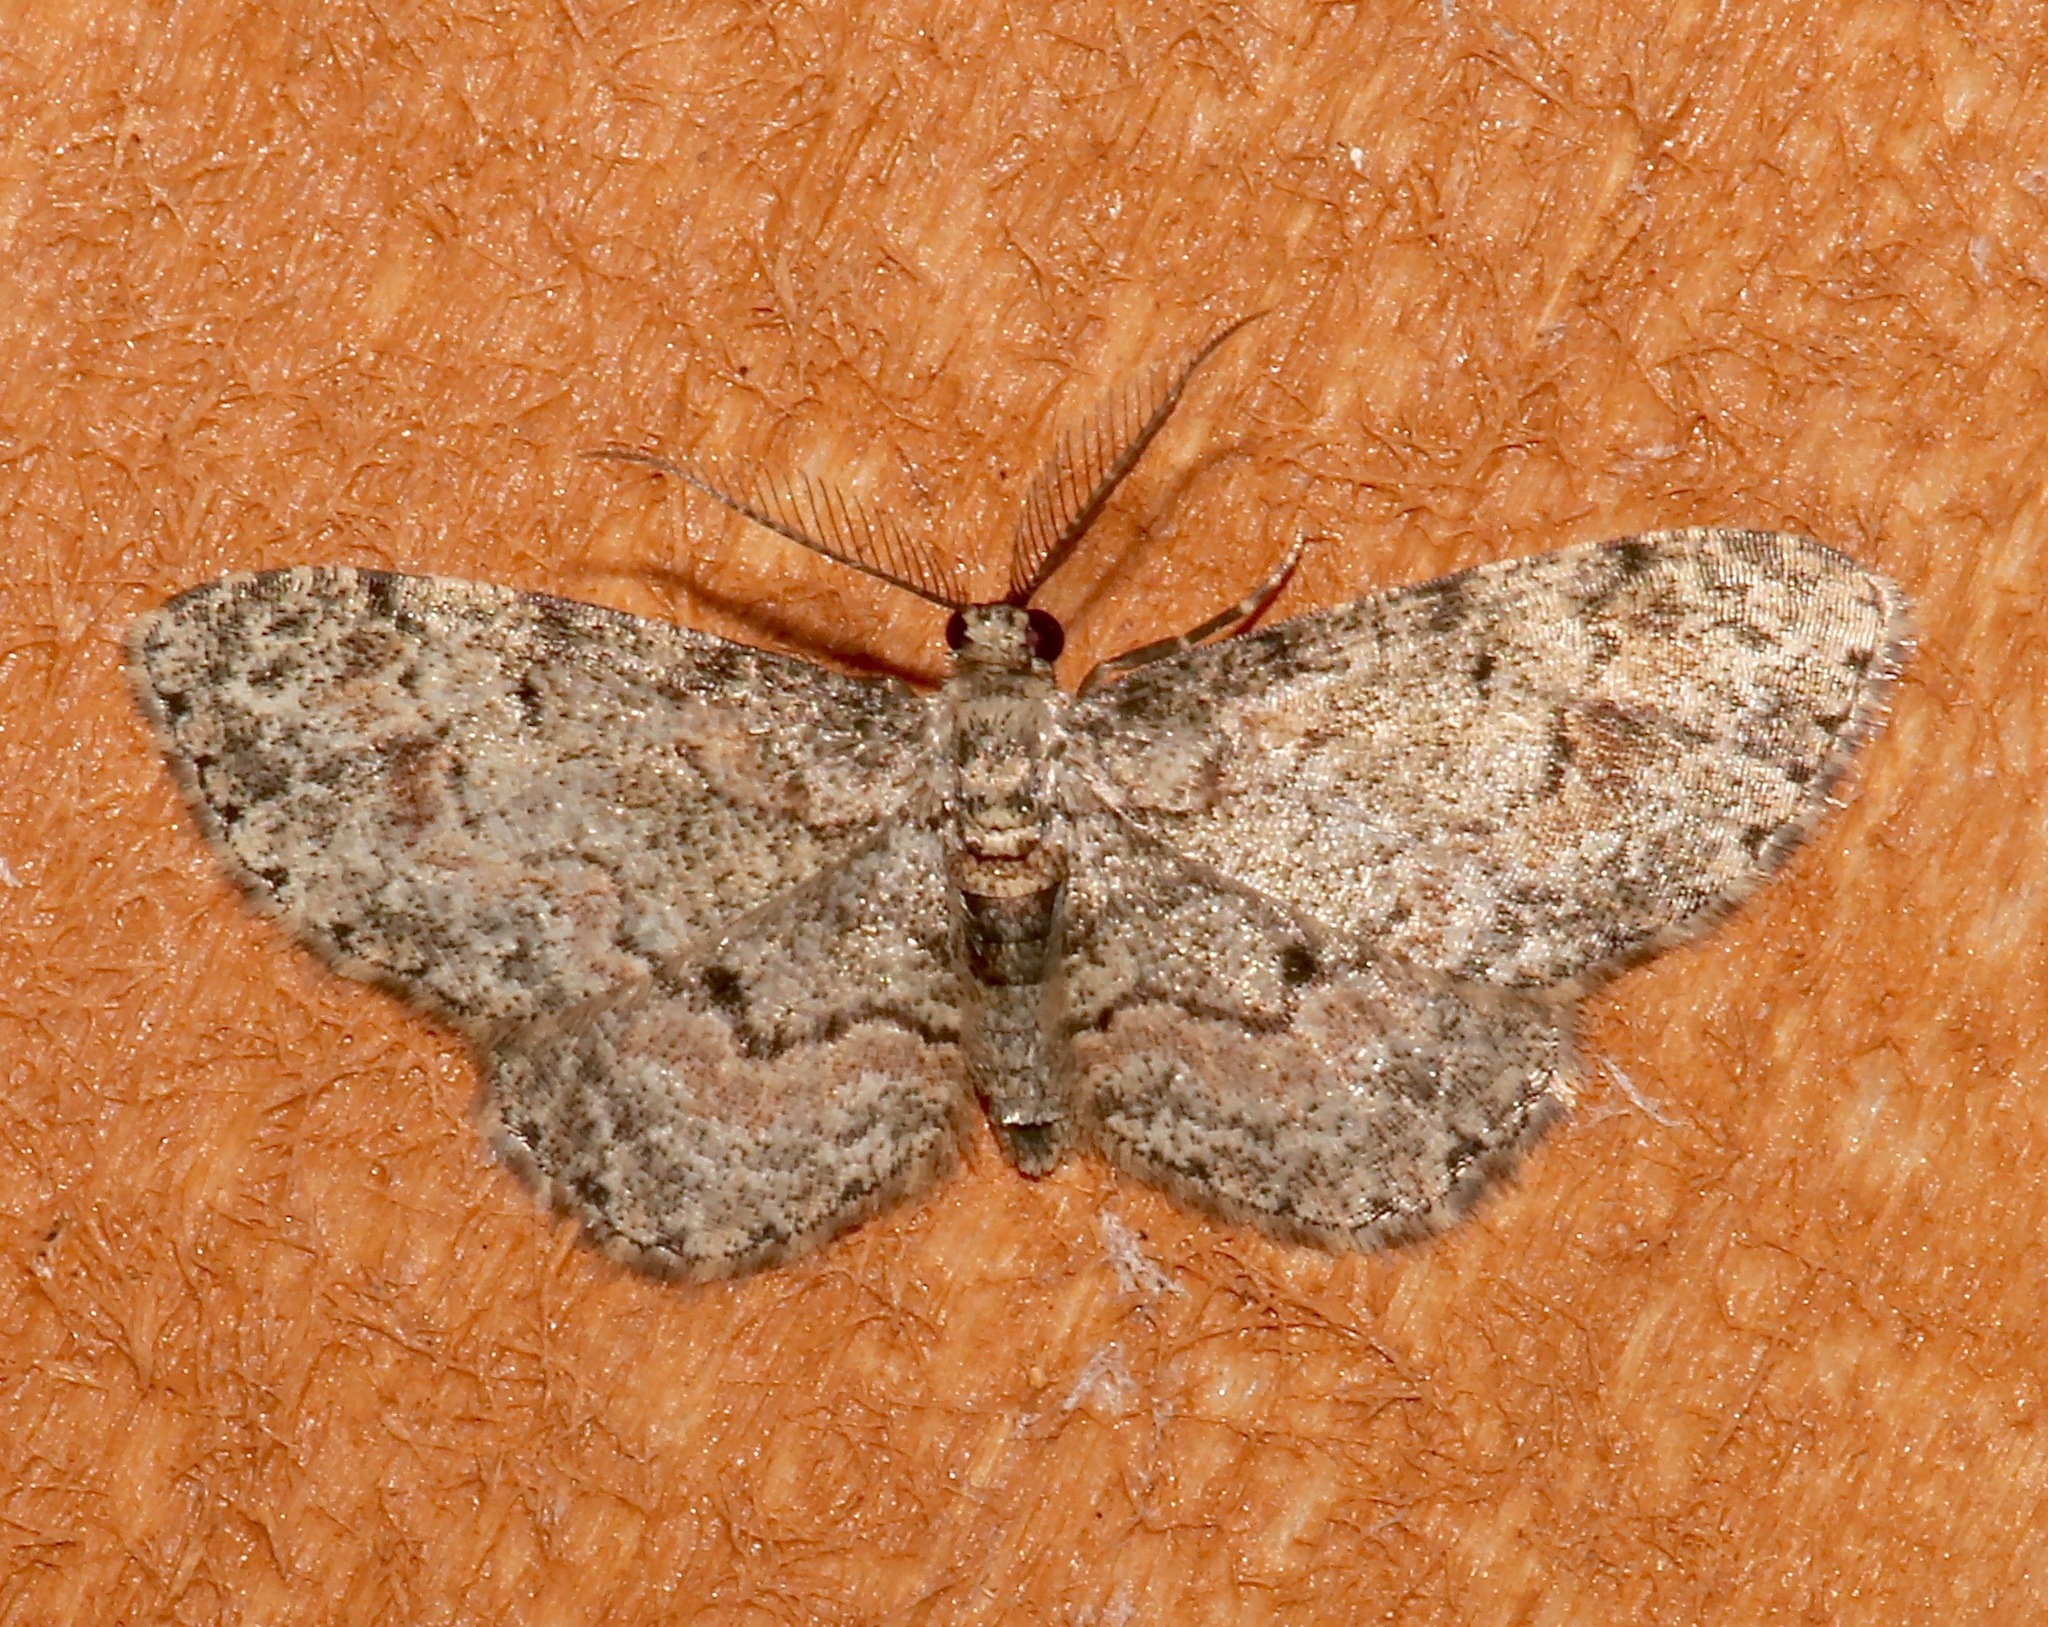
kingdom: Animalia
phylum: Arthropoda
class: Insecta
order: Lepidoptera
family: Geometridae
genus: Glenoides
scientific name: Glenoides texanaria
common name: Texas gray
